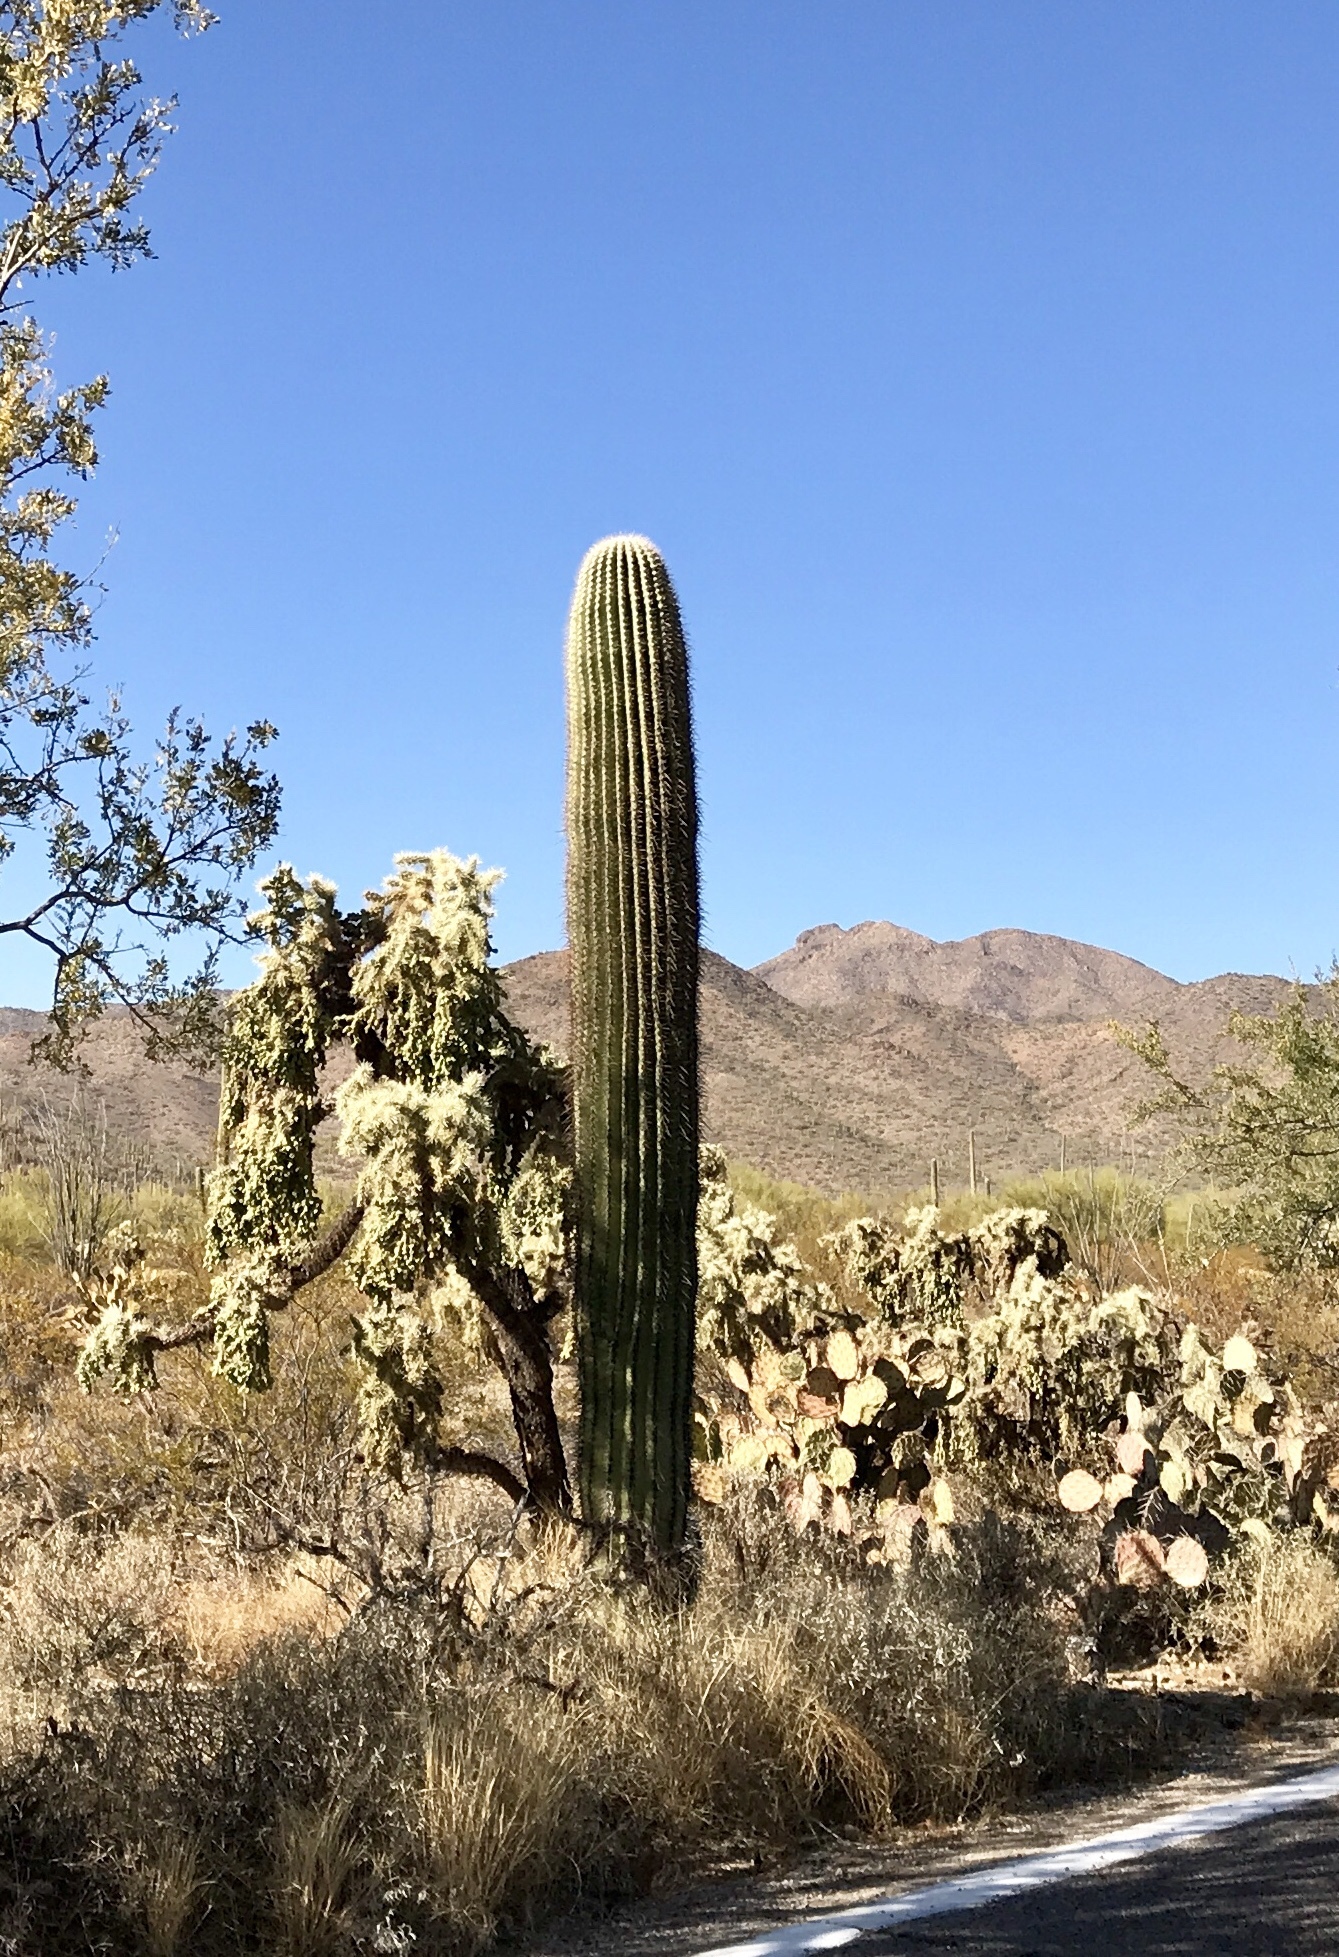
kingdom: Plantae
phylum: Tracheophyta
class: Magnoliopsida
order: Caryophyllales
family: Cactaceae
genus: Carnegiea
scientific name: Carnegiea gigantea
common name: Saguaro
